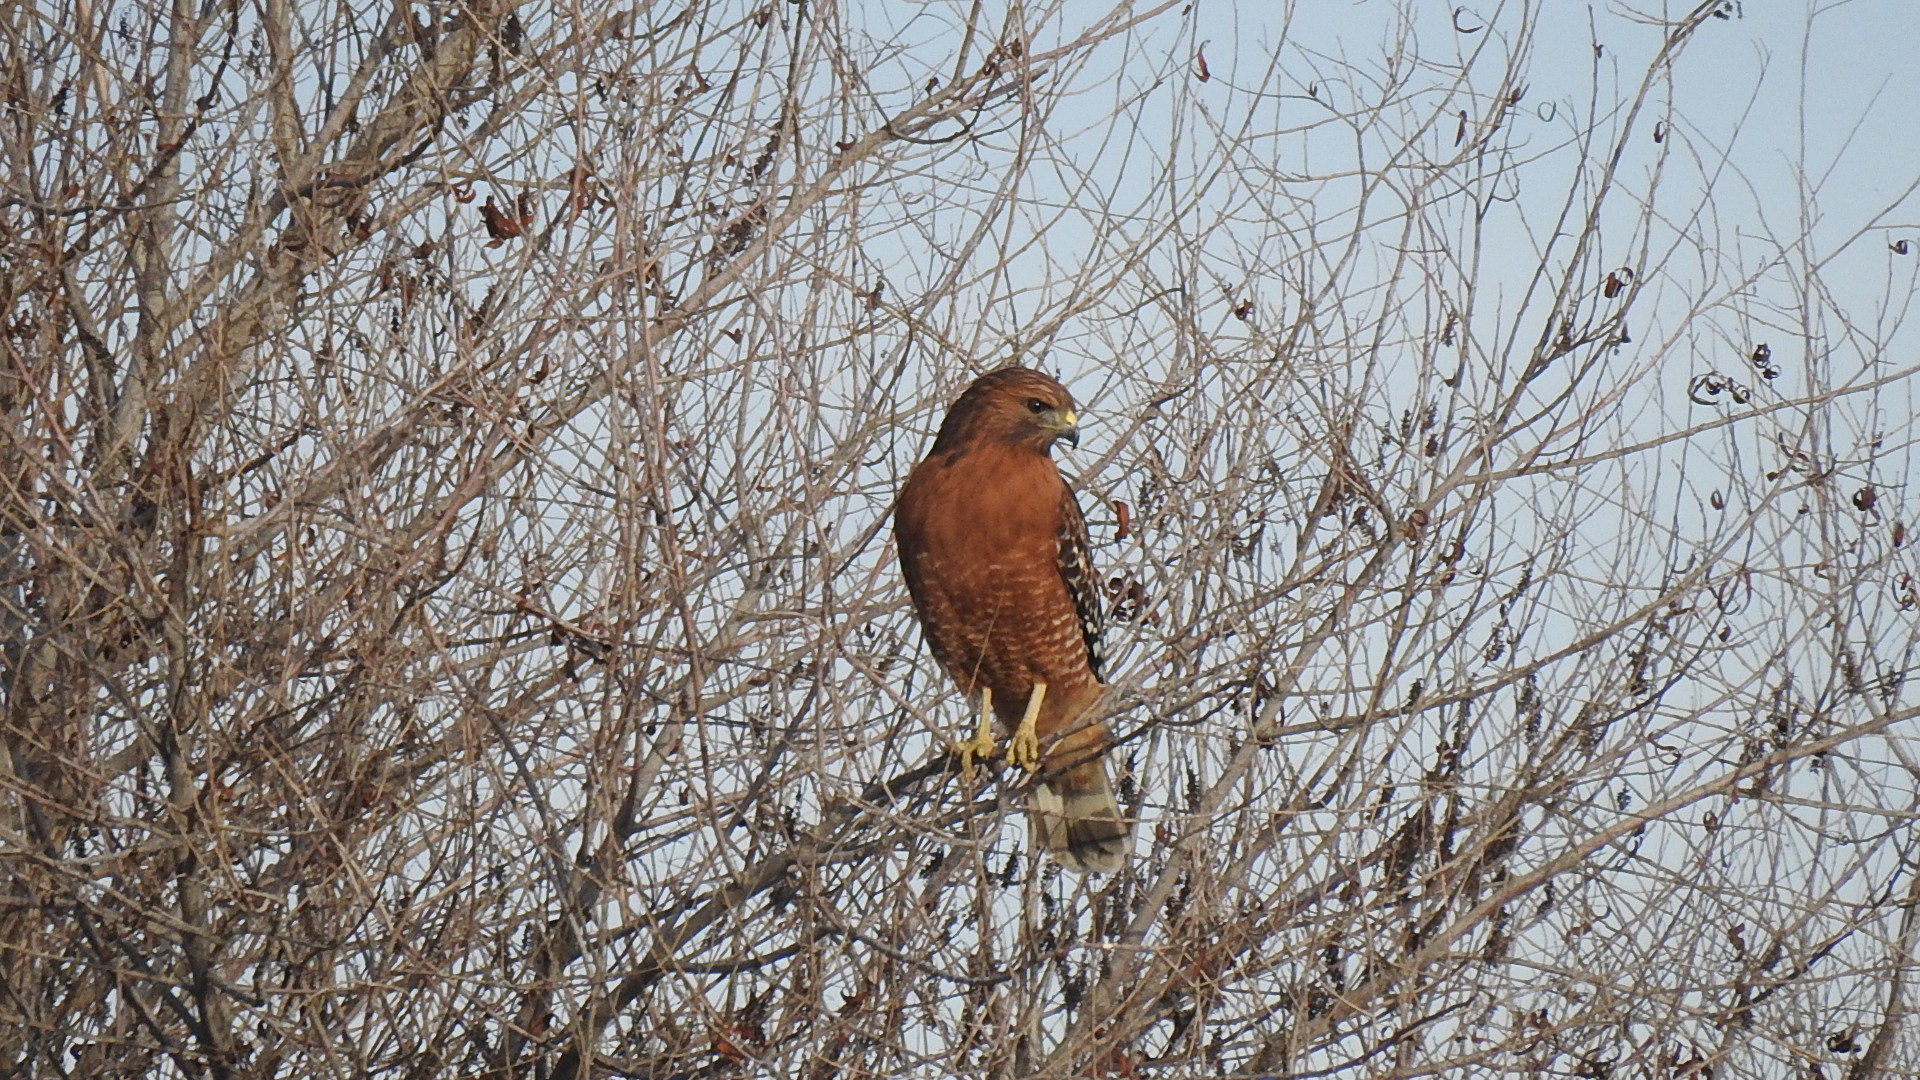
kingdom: Animalia
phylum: Chordata
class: Aves
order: Accipitriformes
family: Accipitridae
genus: Buteo
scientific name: Buteo lineatus
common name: Red-shouldered hawk
